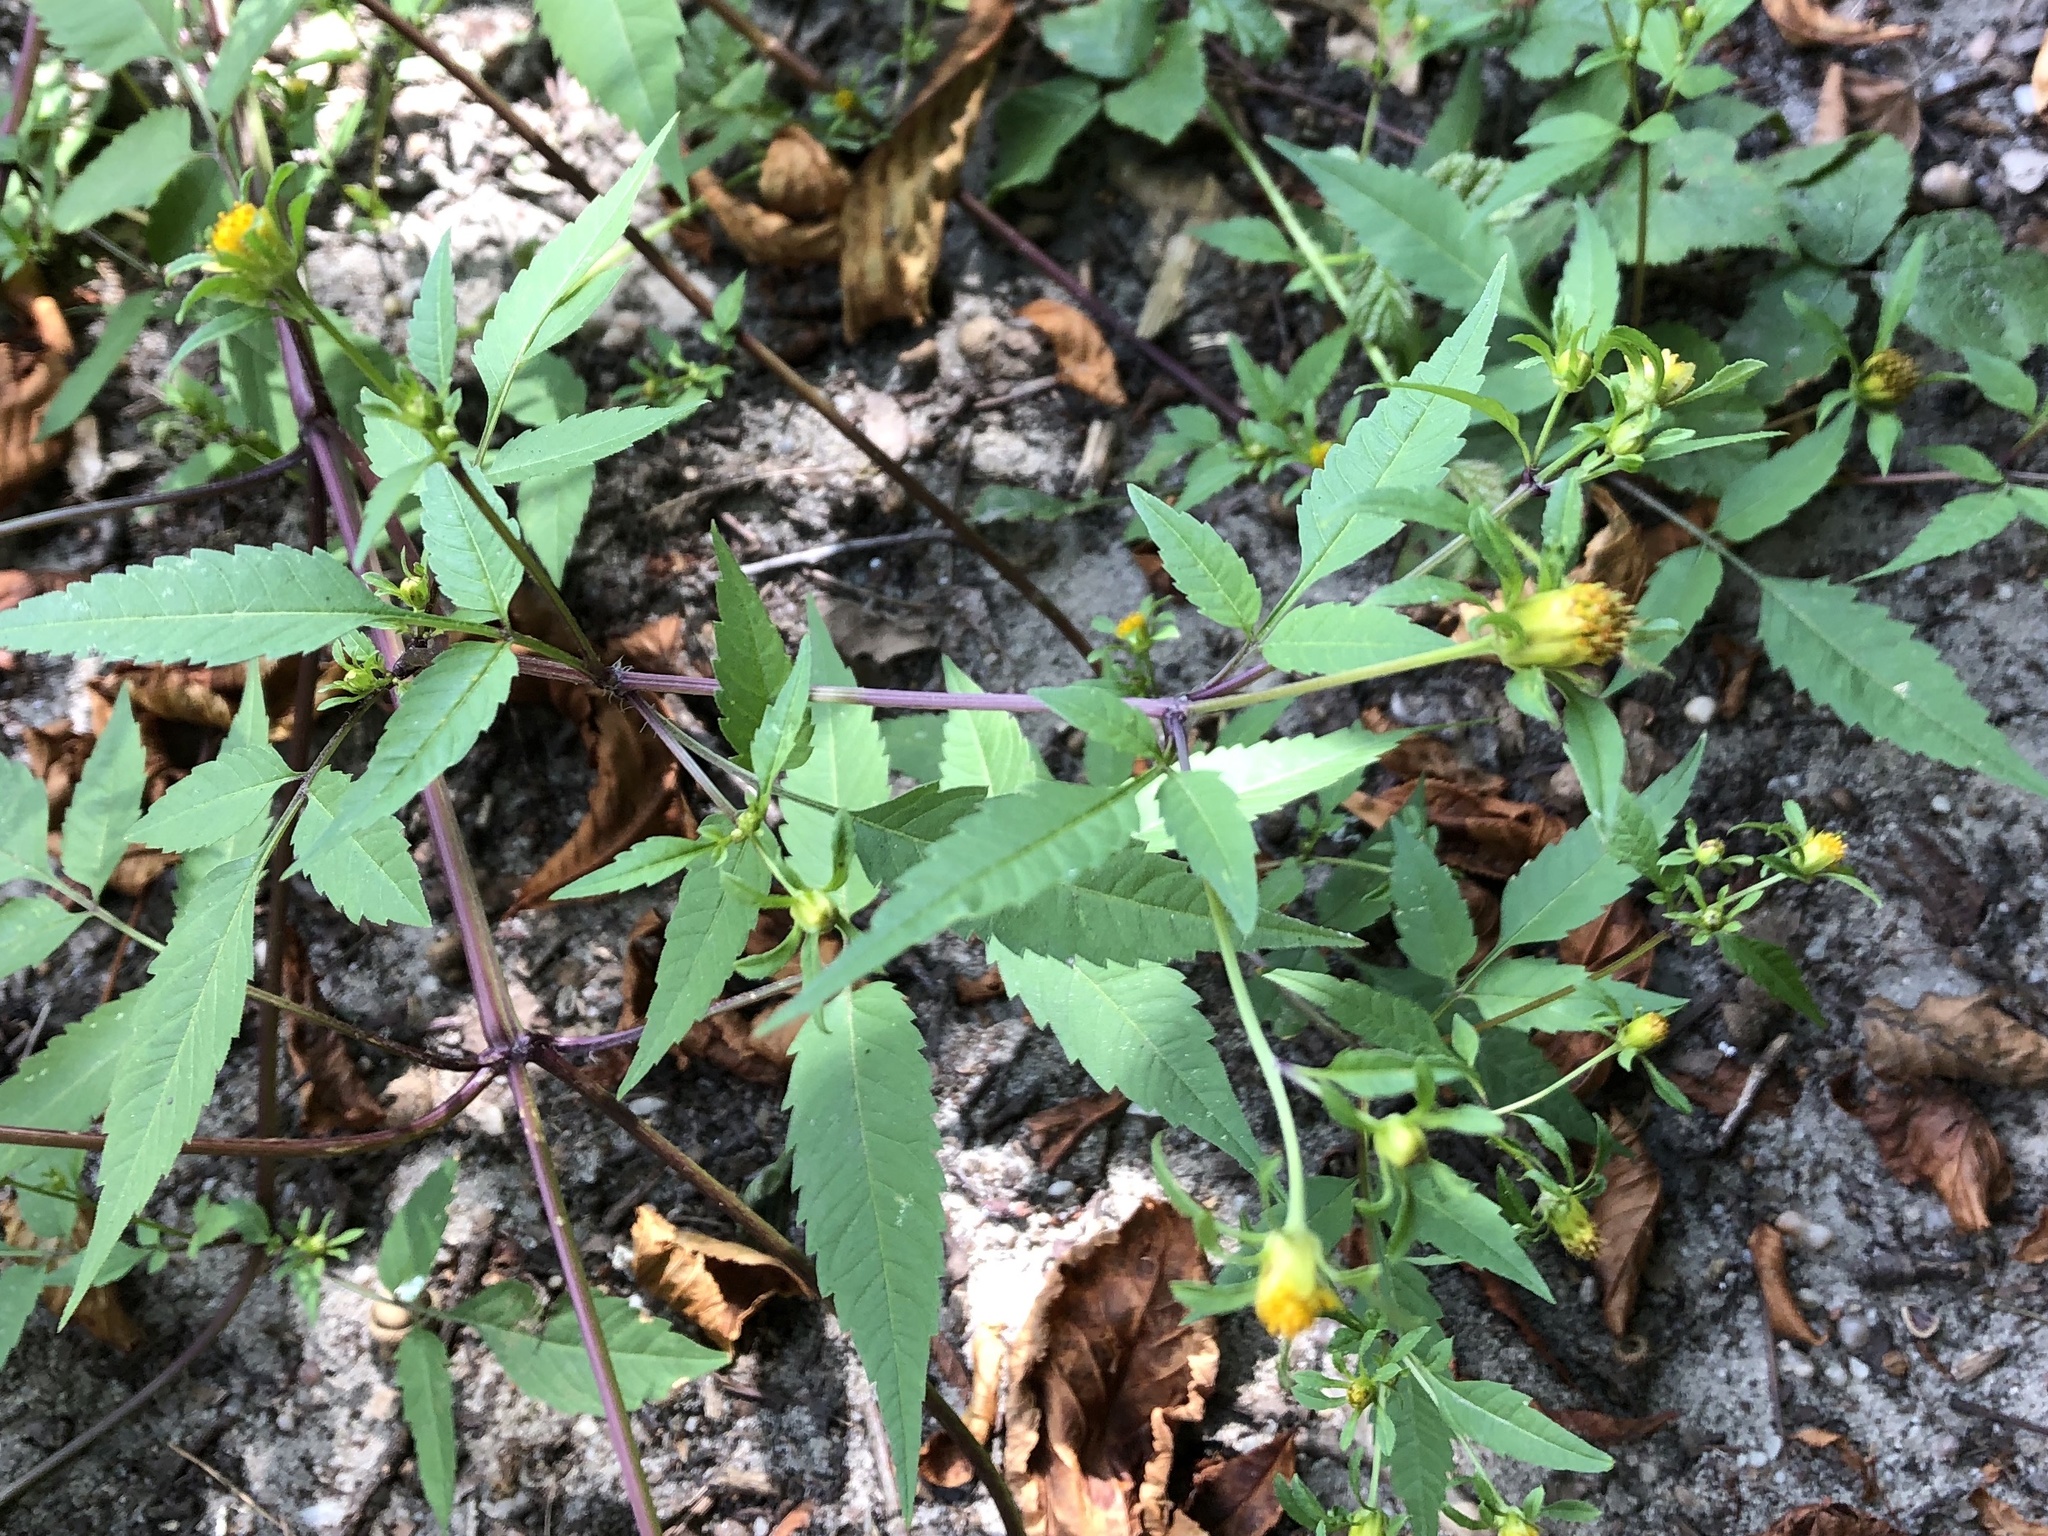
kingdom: Plantae
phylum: Tracheophyta
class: Magnoliopsida
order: Asterales
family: Asteraceae
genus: Bidens
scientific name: Bidens frondosa
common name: Beggarticks
